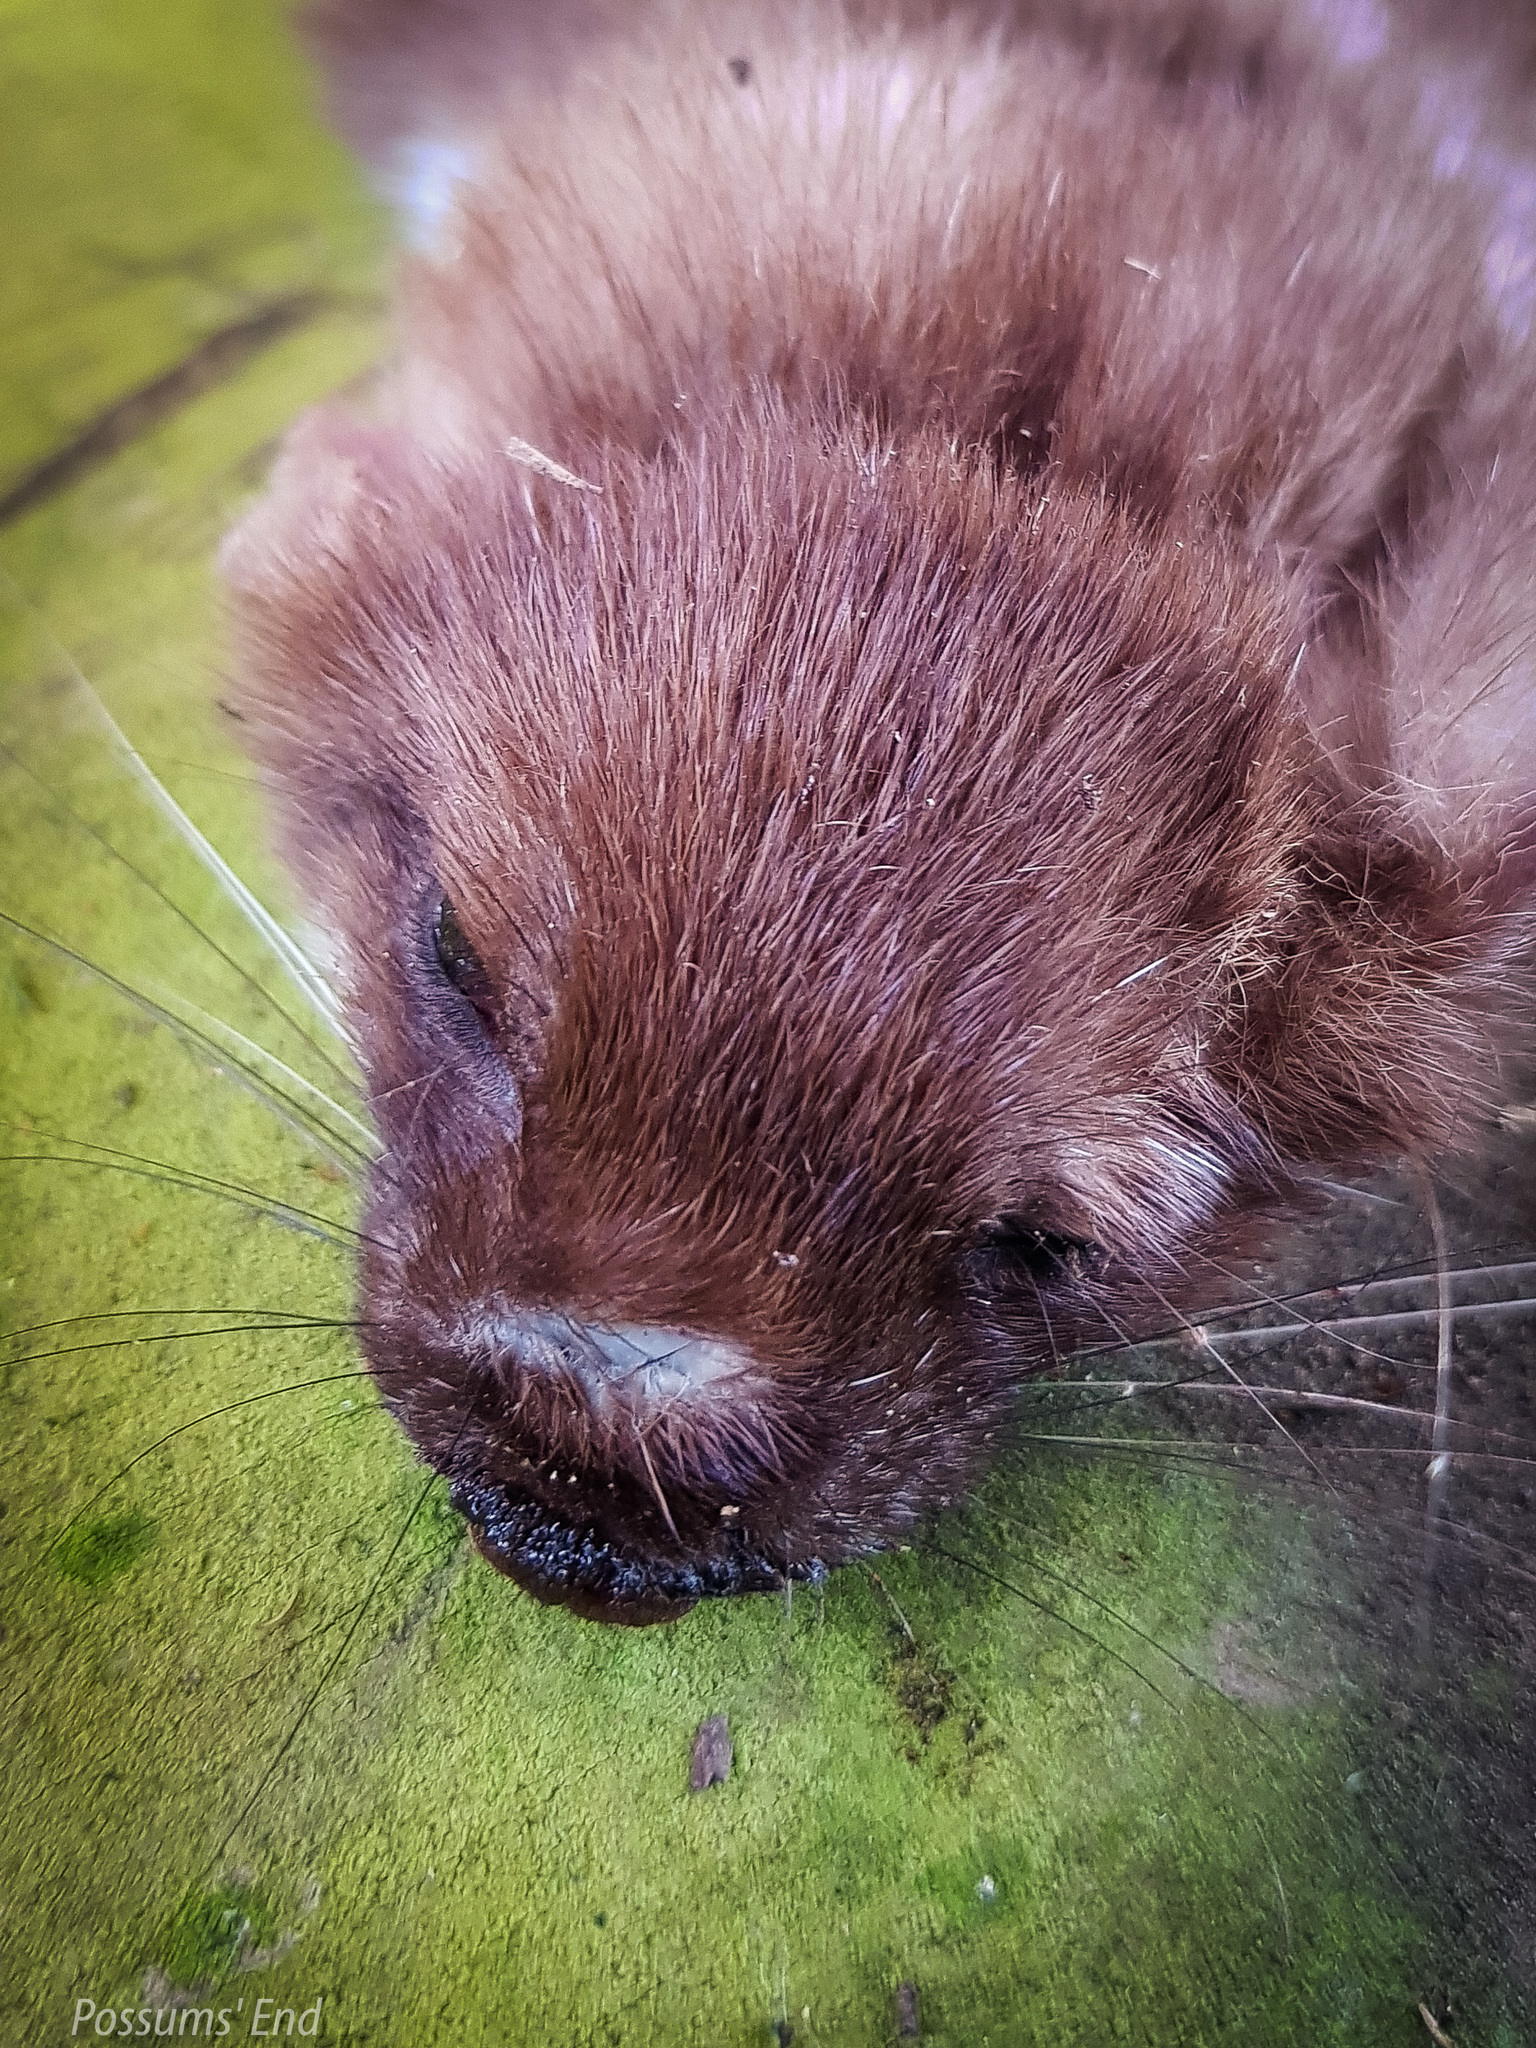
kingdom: Animalia
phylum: Chordata
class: Mammalia
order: Carnivora
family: Mustelidae
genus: Mustela
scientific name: Mustela erminea
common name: Stoat
